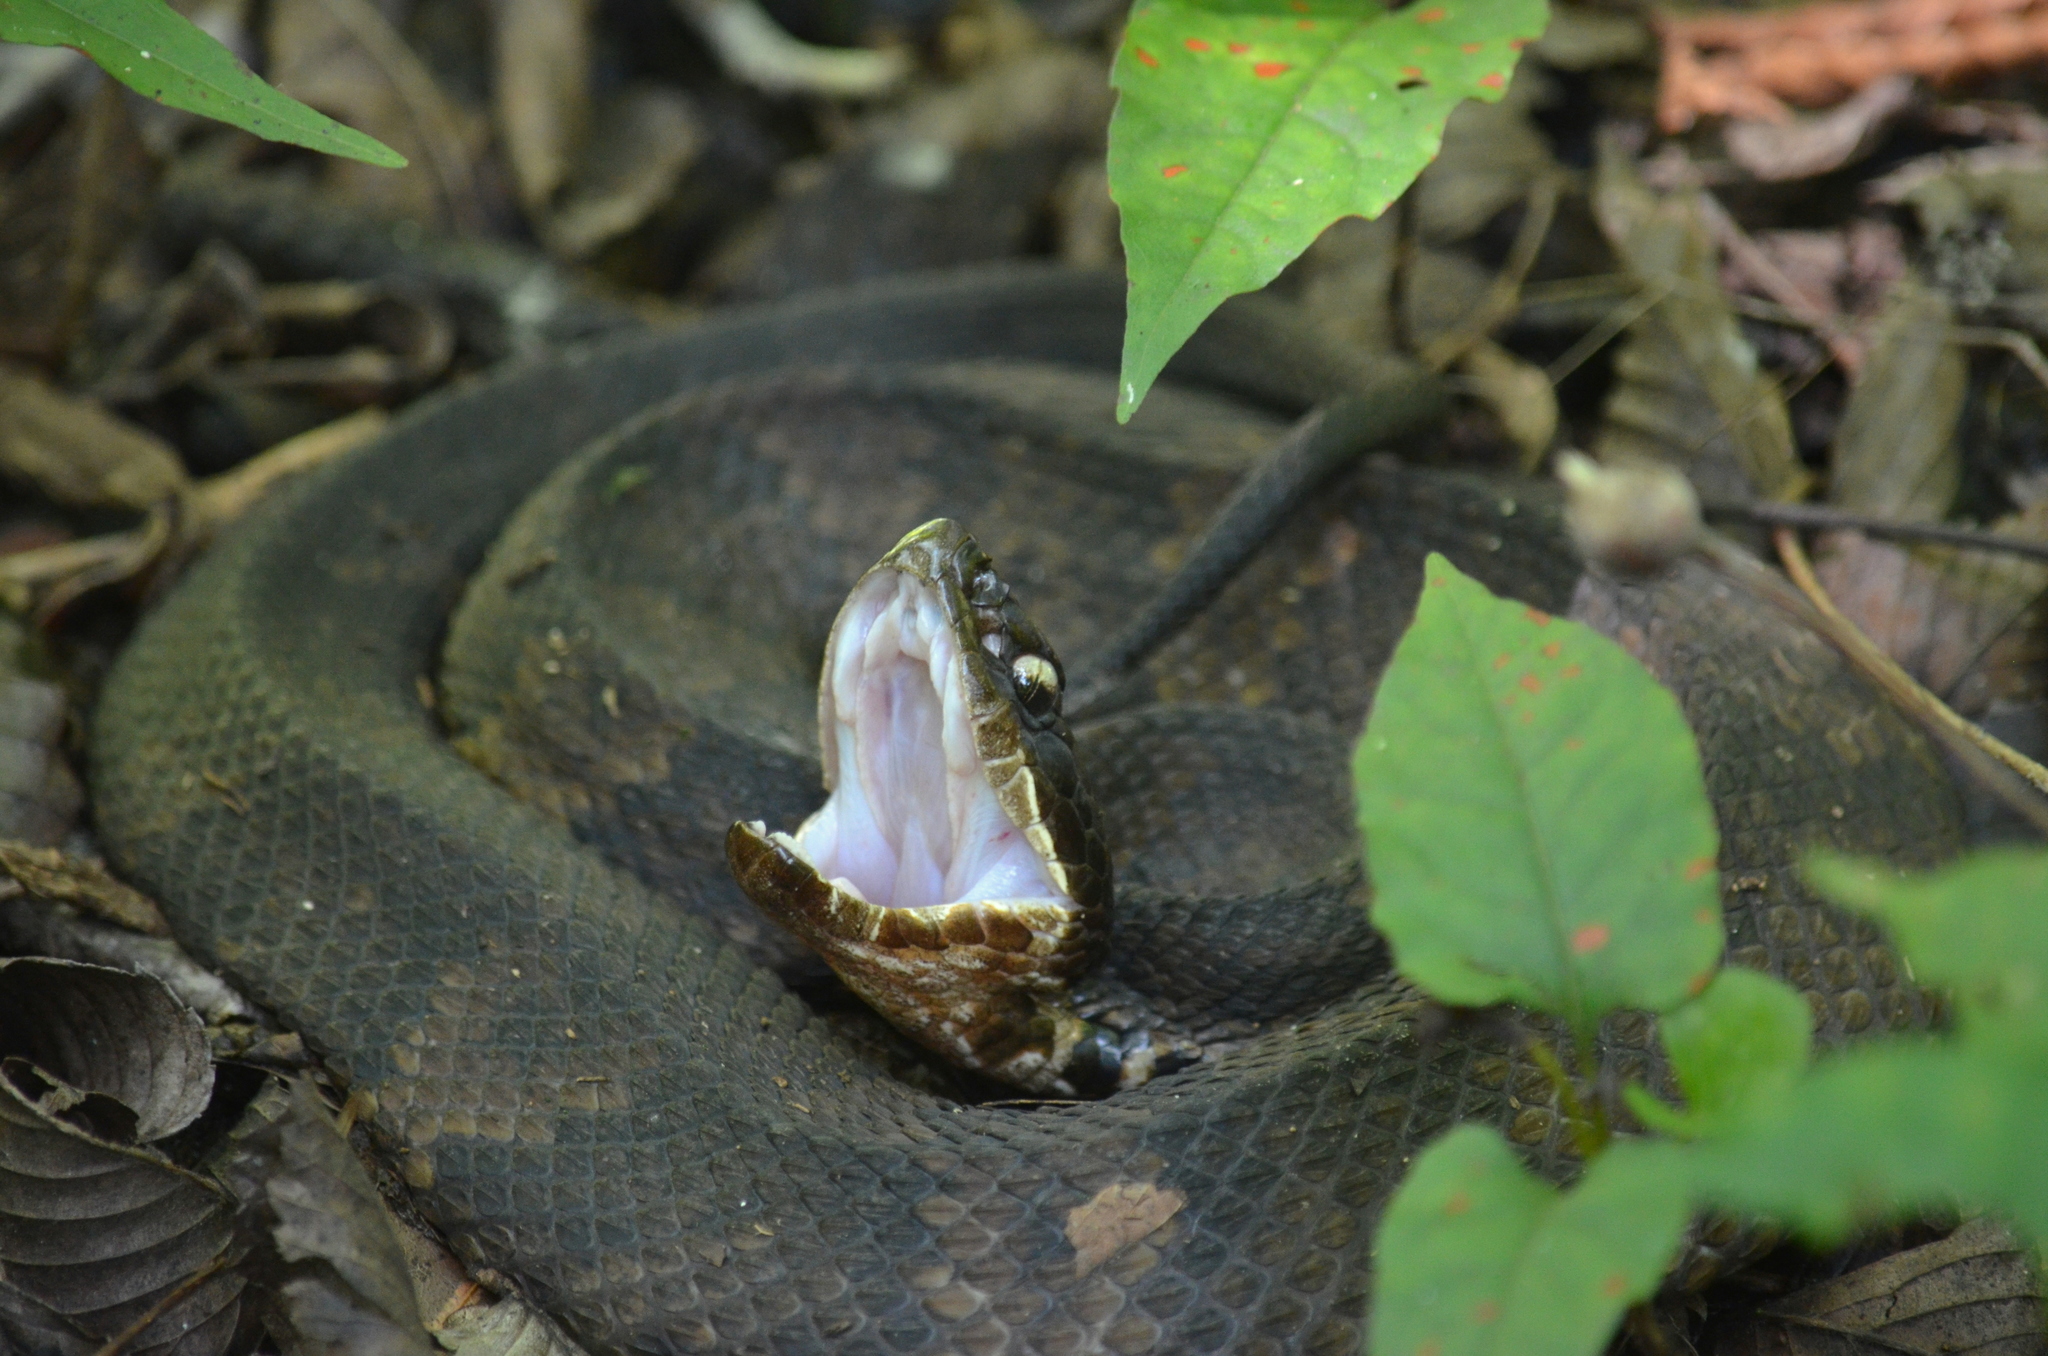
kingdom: Animalia
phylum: Chordata
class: Squamata
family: Viperidae
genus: Agkistrodon
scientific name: Agkistrodon piscivorus
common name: Cottonmouth
